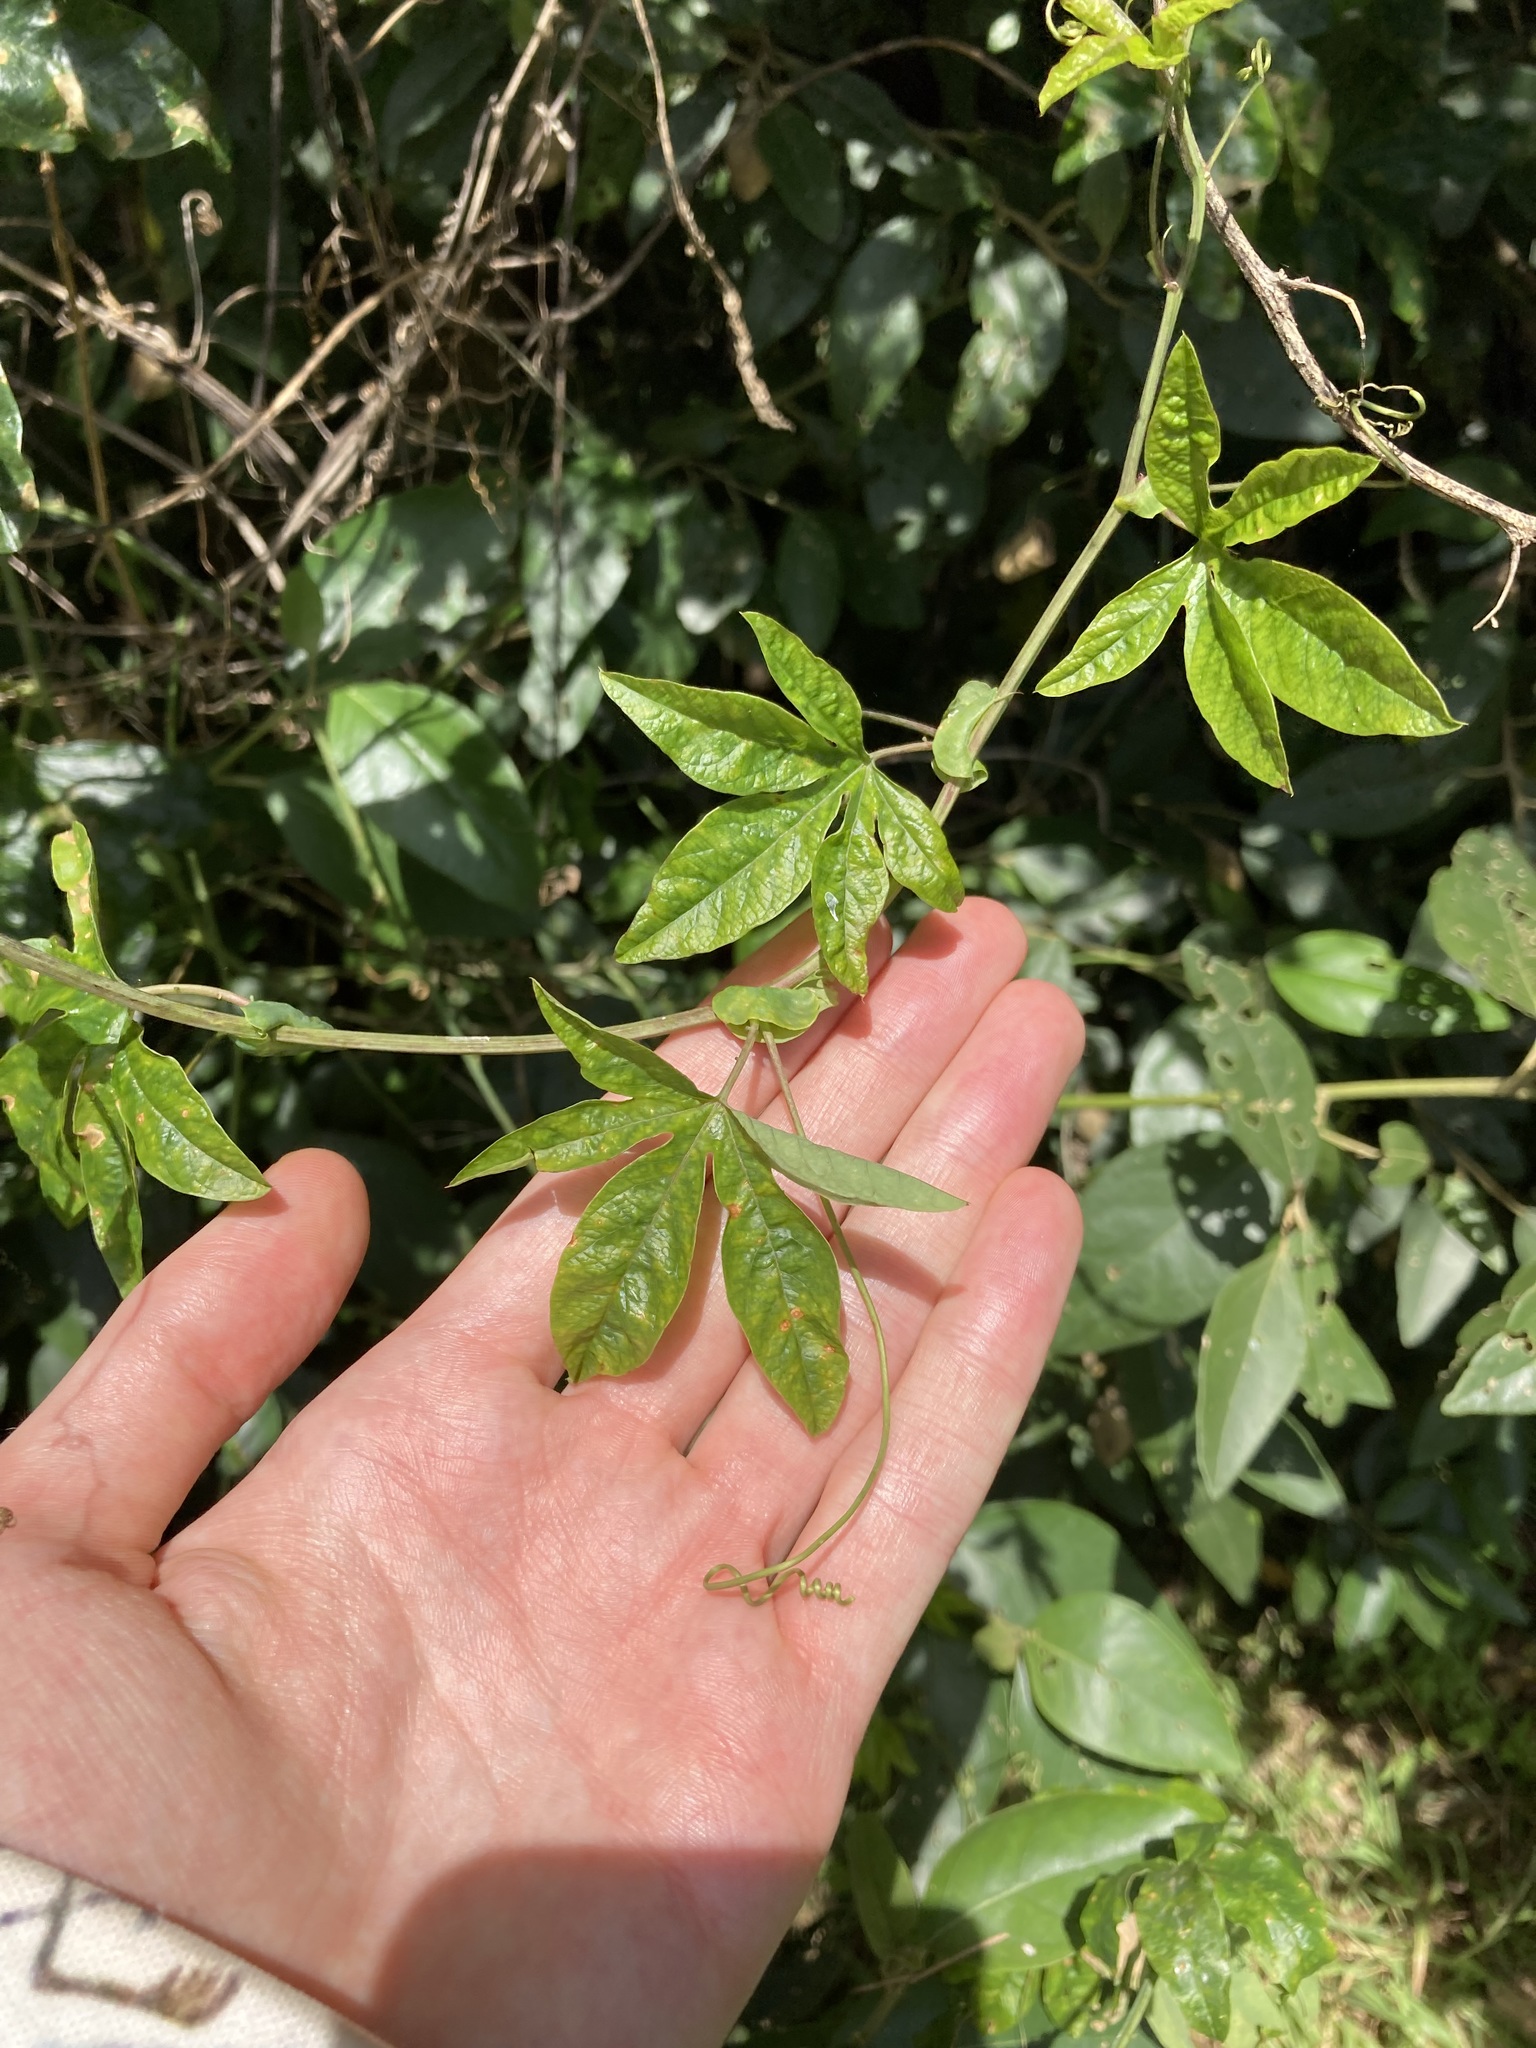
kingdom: Plantae
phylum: Tracheophyta
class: Magnoliopsida
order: Malpighiales
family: Passifloraceae
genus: Passiflora
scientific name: Passiflora caerulea
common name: Blue passionflower
